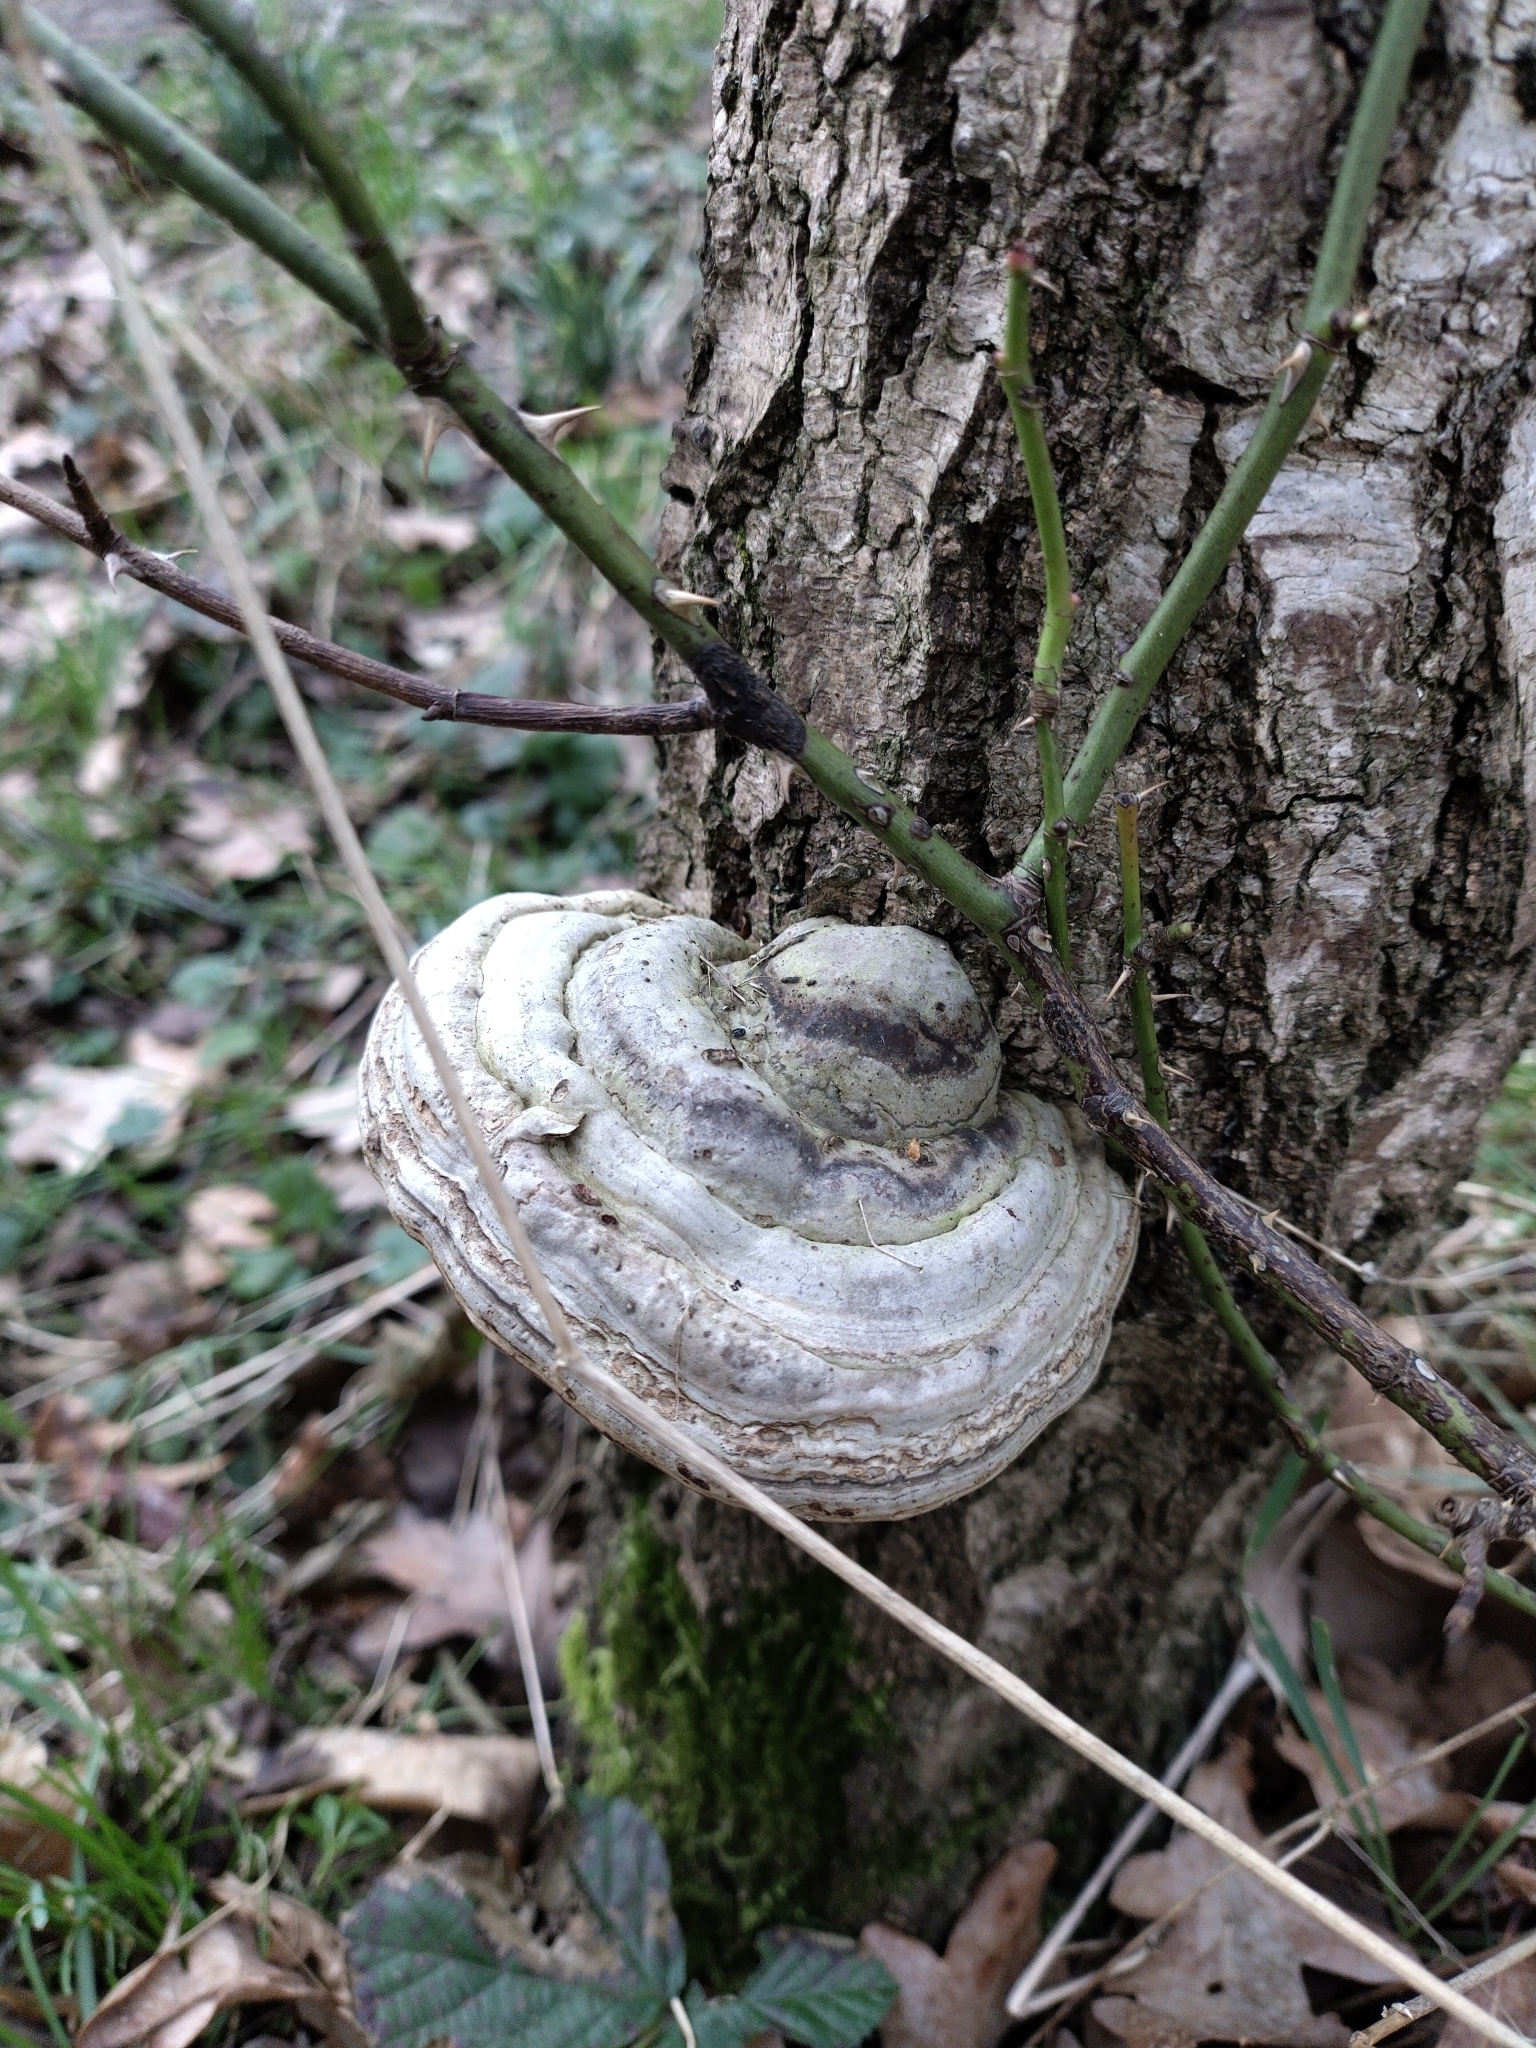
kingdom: Fungi
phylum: Basidiomycota
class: Agaricomycetes
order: Polyporales
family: Polyporaceae
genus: Fomes
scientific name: Fomes fomentarius
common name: Hoof fungus
